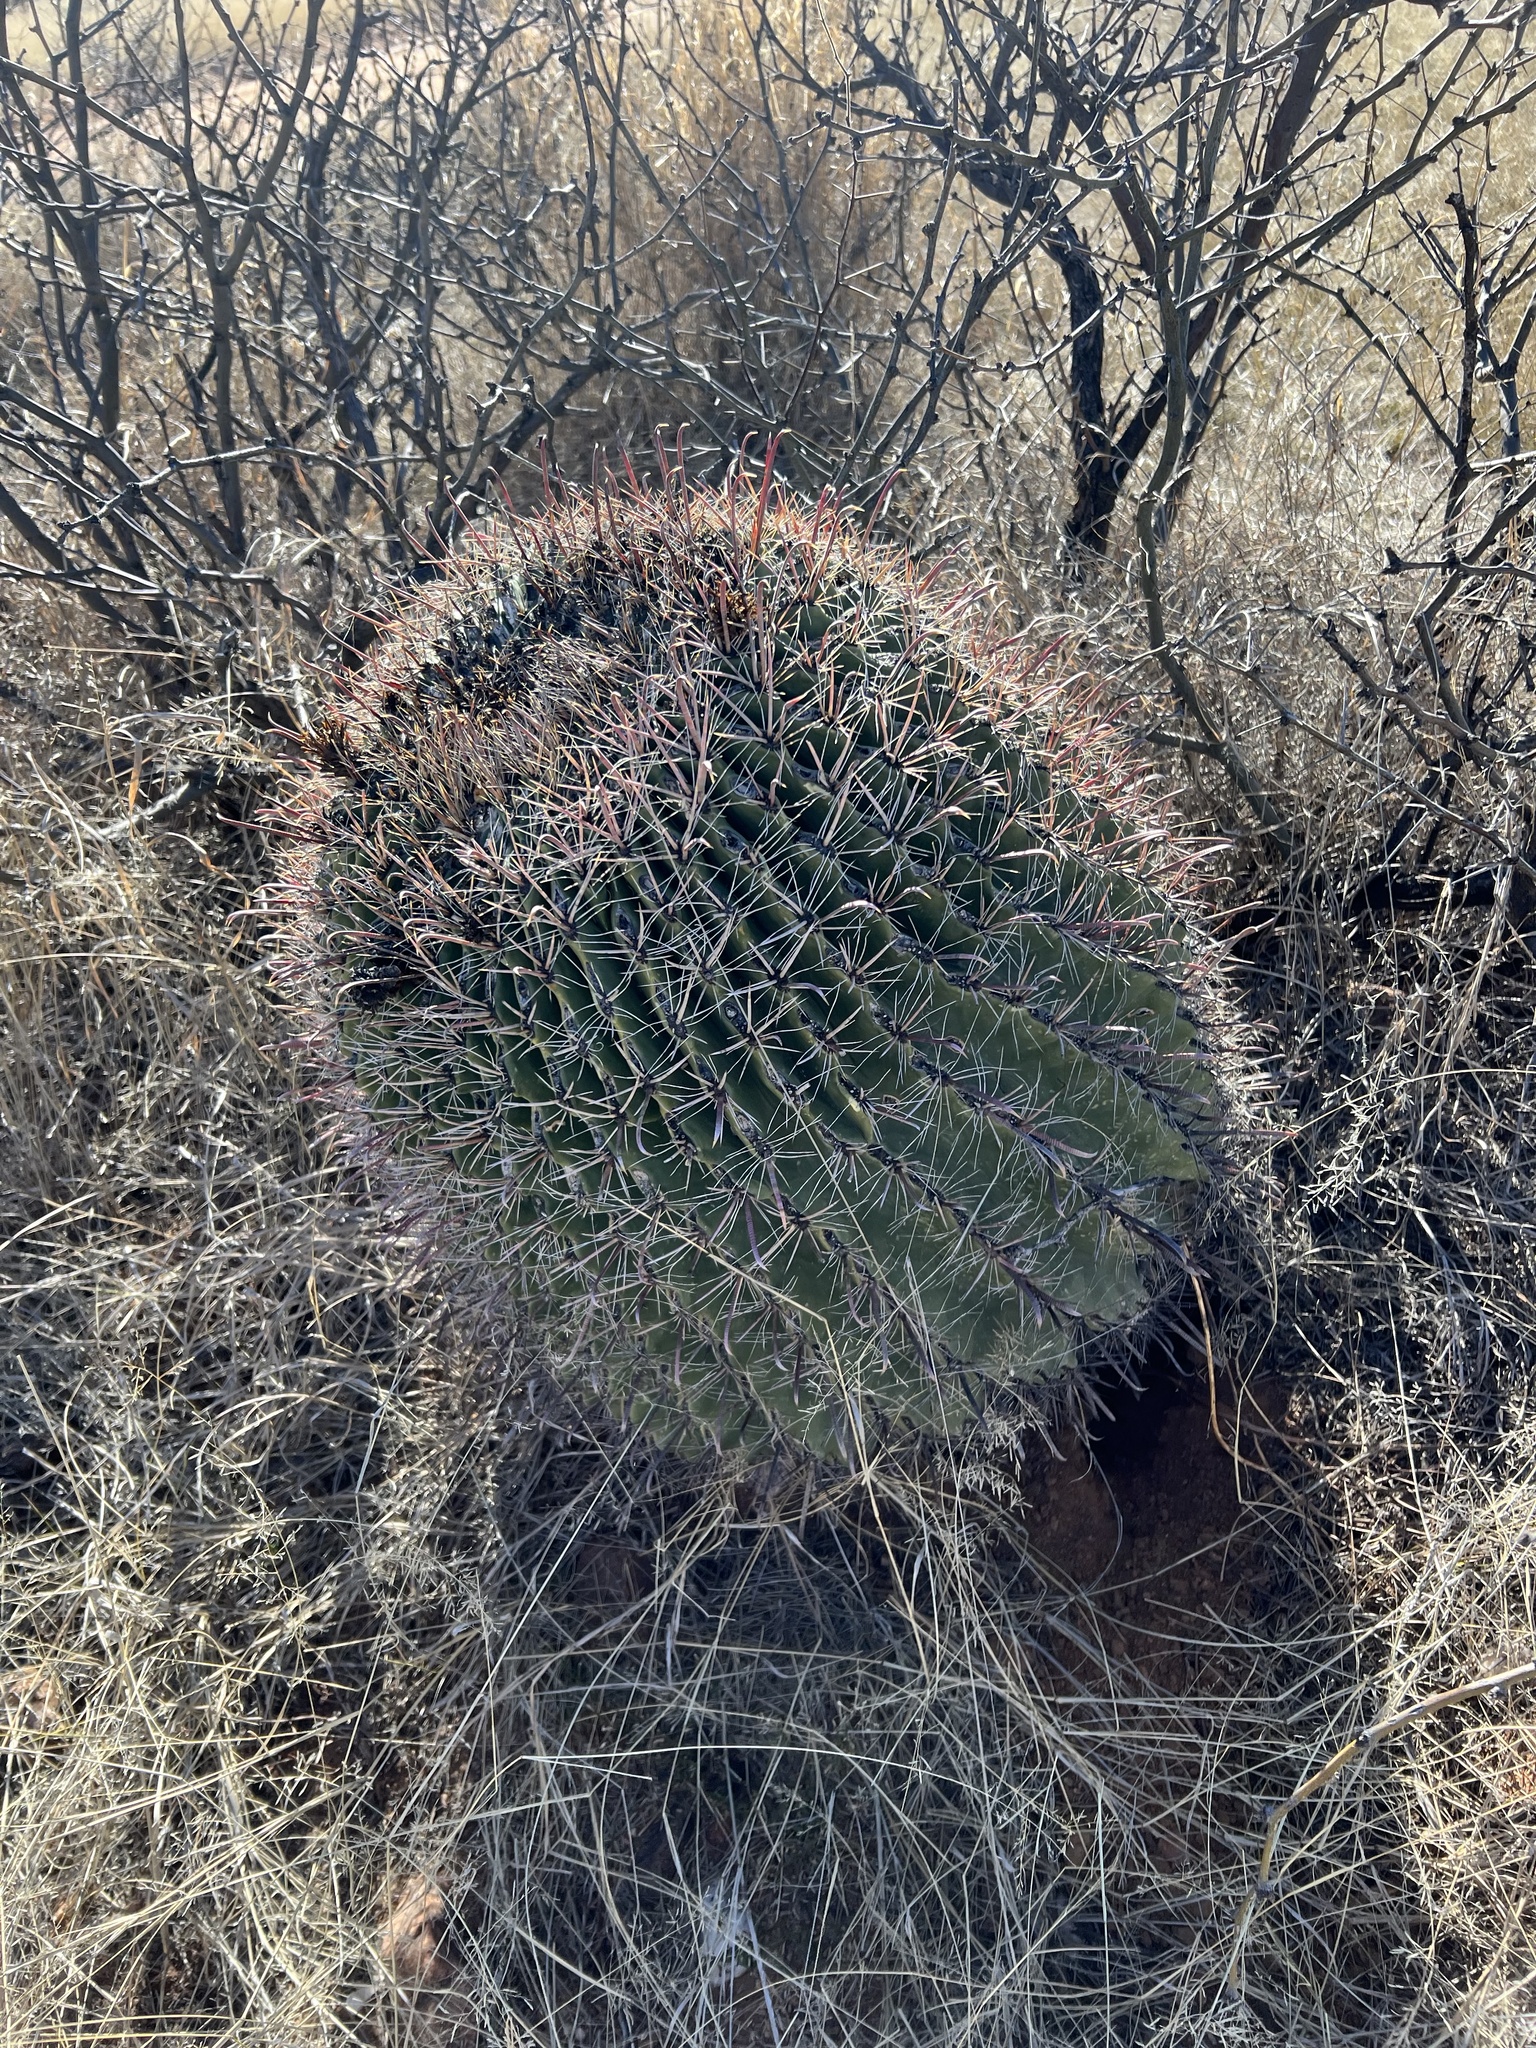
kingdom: Plantae
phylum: Tracheophyta
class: Magnoliopsida
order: Caryophyllales
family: Cactaceae
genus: Ferocactus
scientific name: Ferocactus wislizeni
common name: Candy barrel cactus
